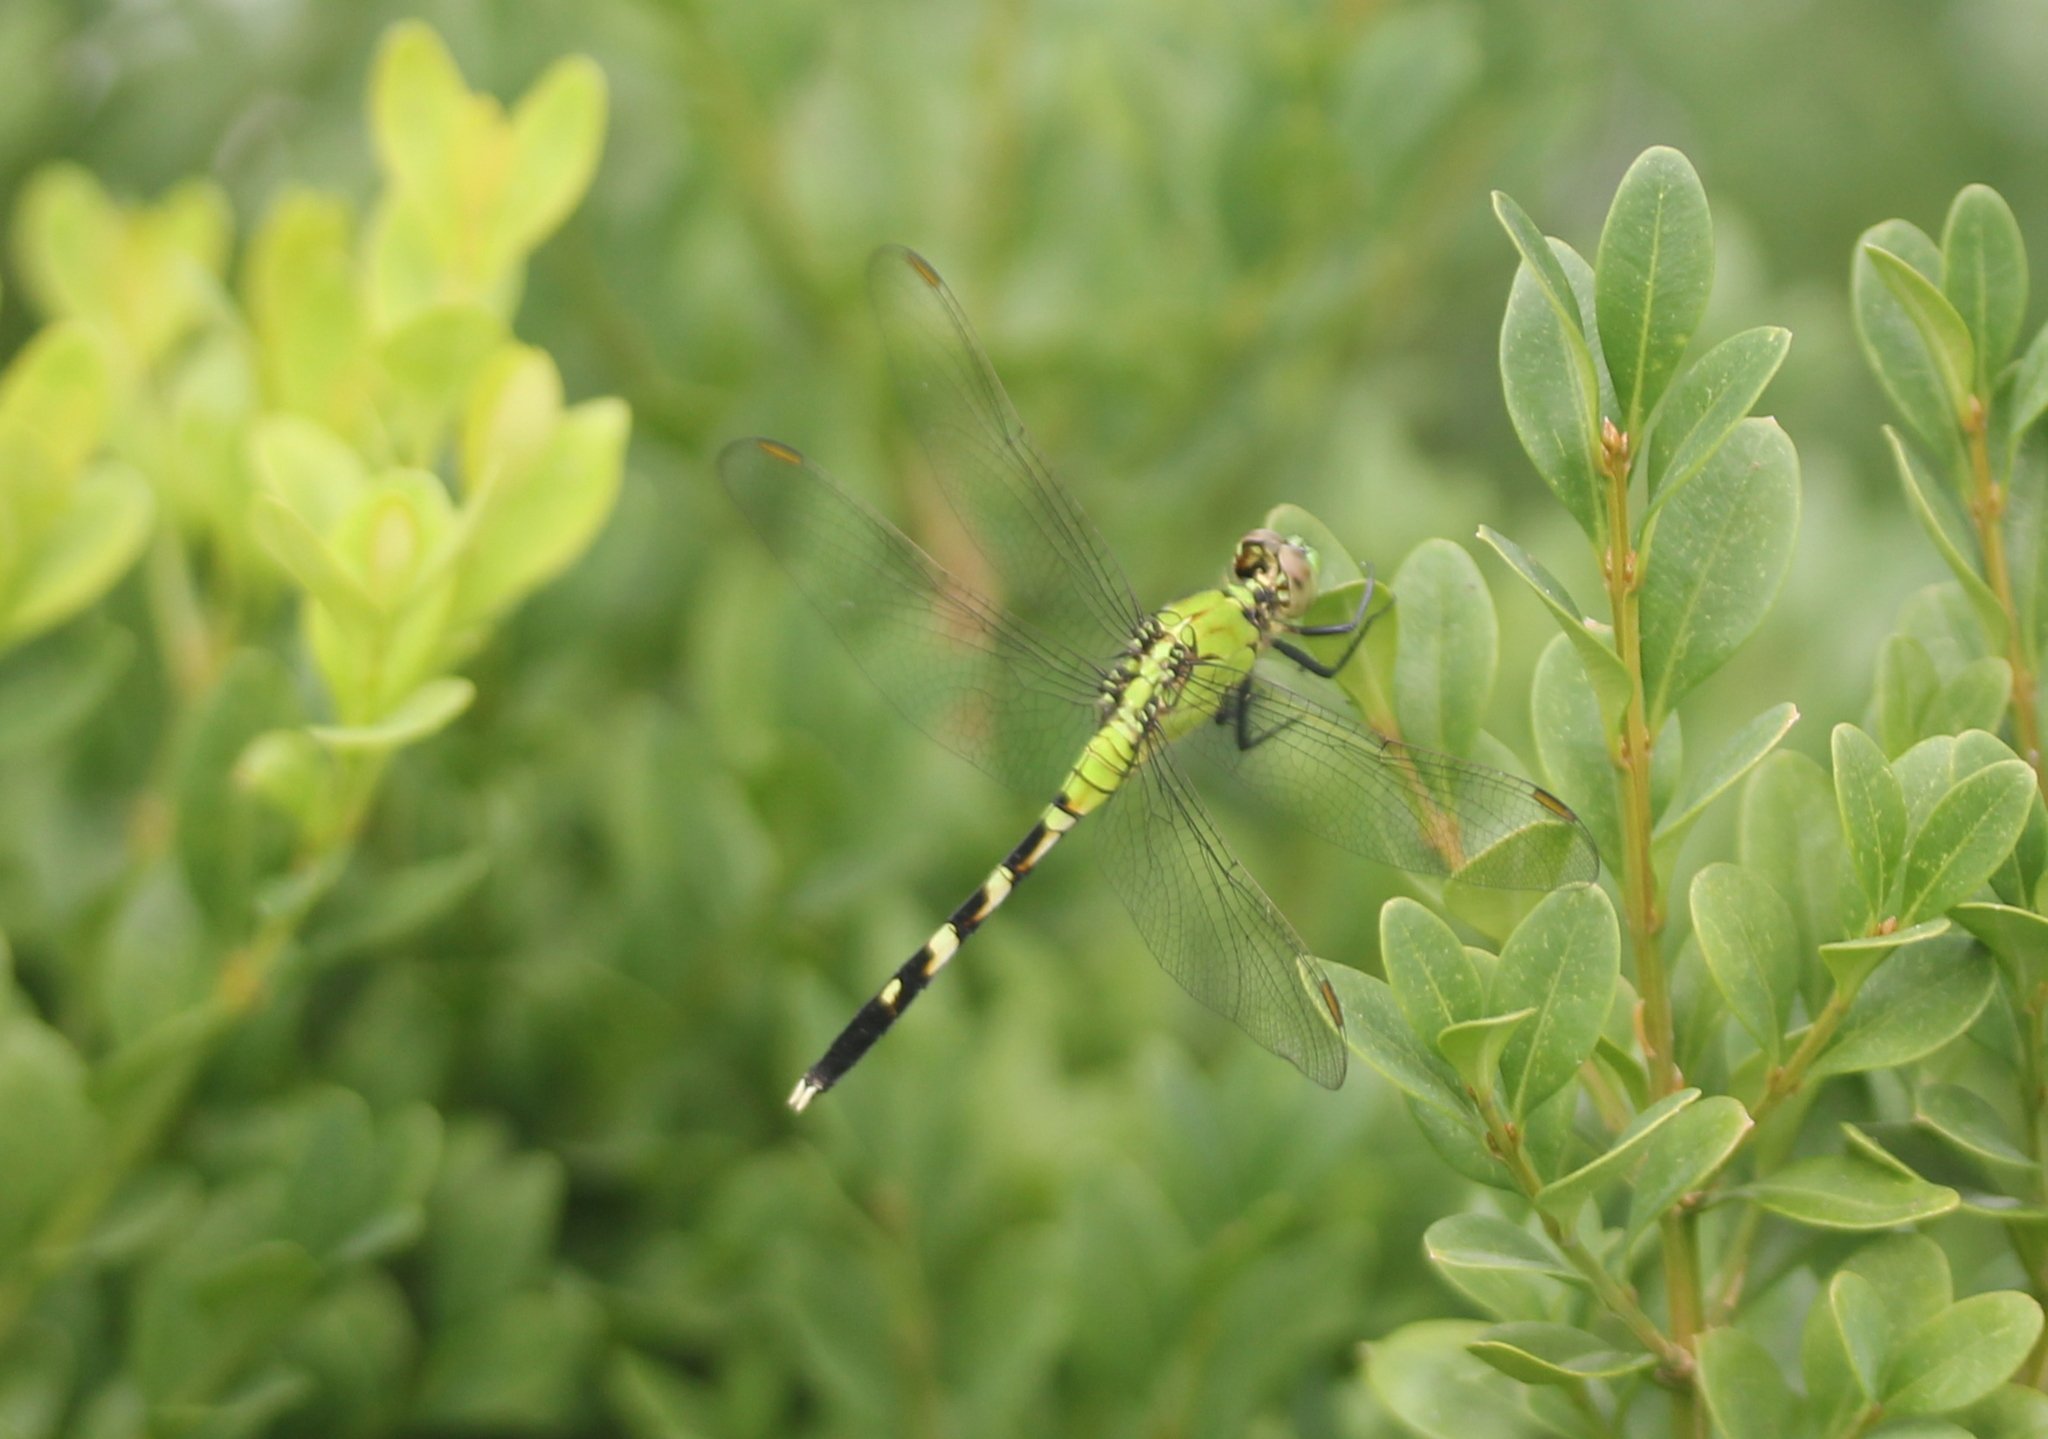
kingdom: Animalia
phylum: Arthropoda
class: Insecta
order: Odonata
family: Libellulidae
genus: Erythemis
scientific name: Erythemis simplicicollis
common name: Eastern pondhawk
